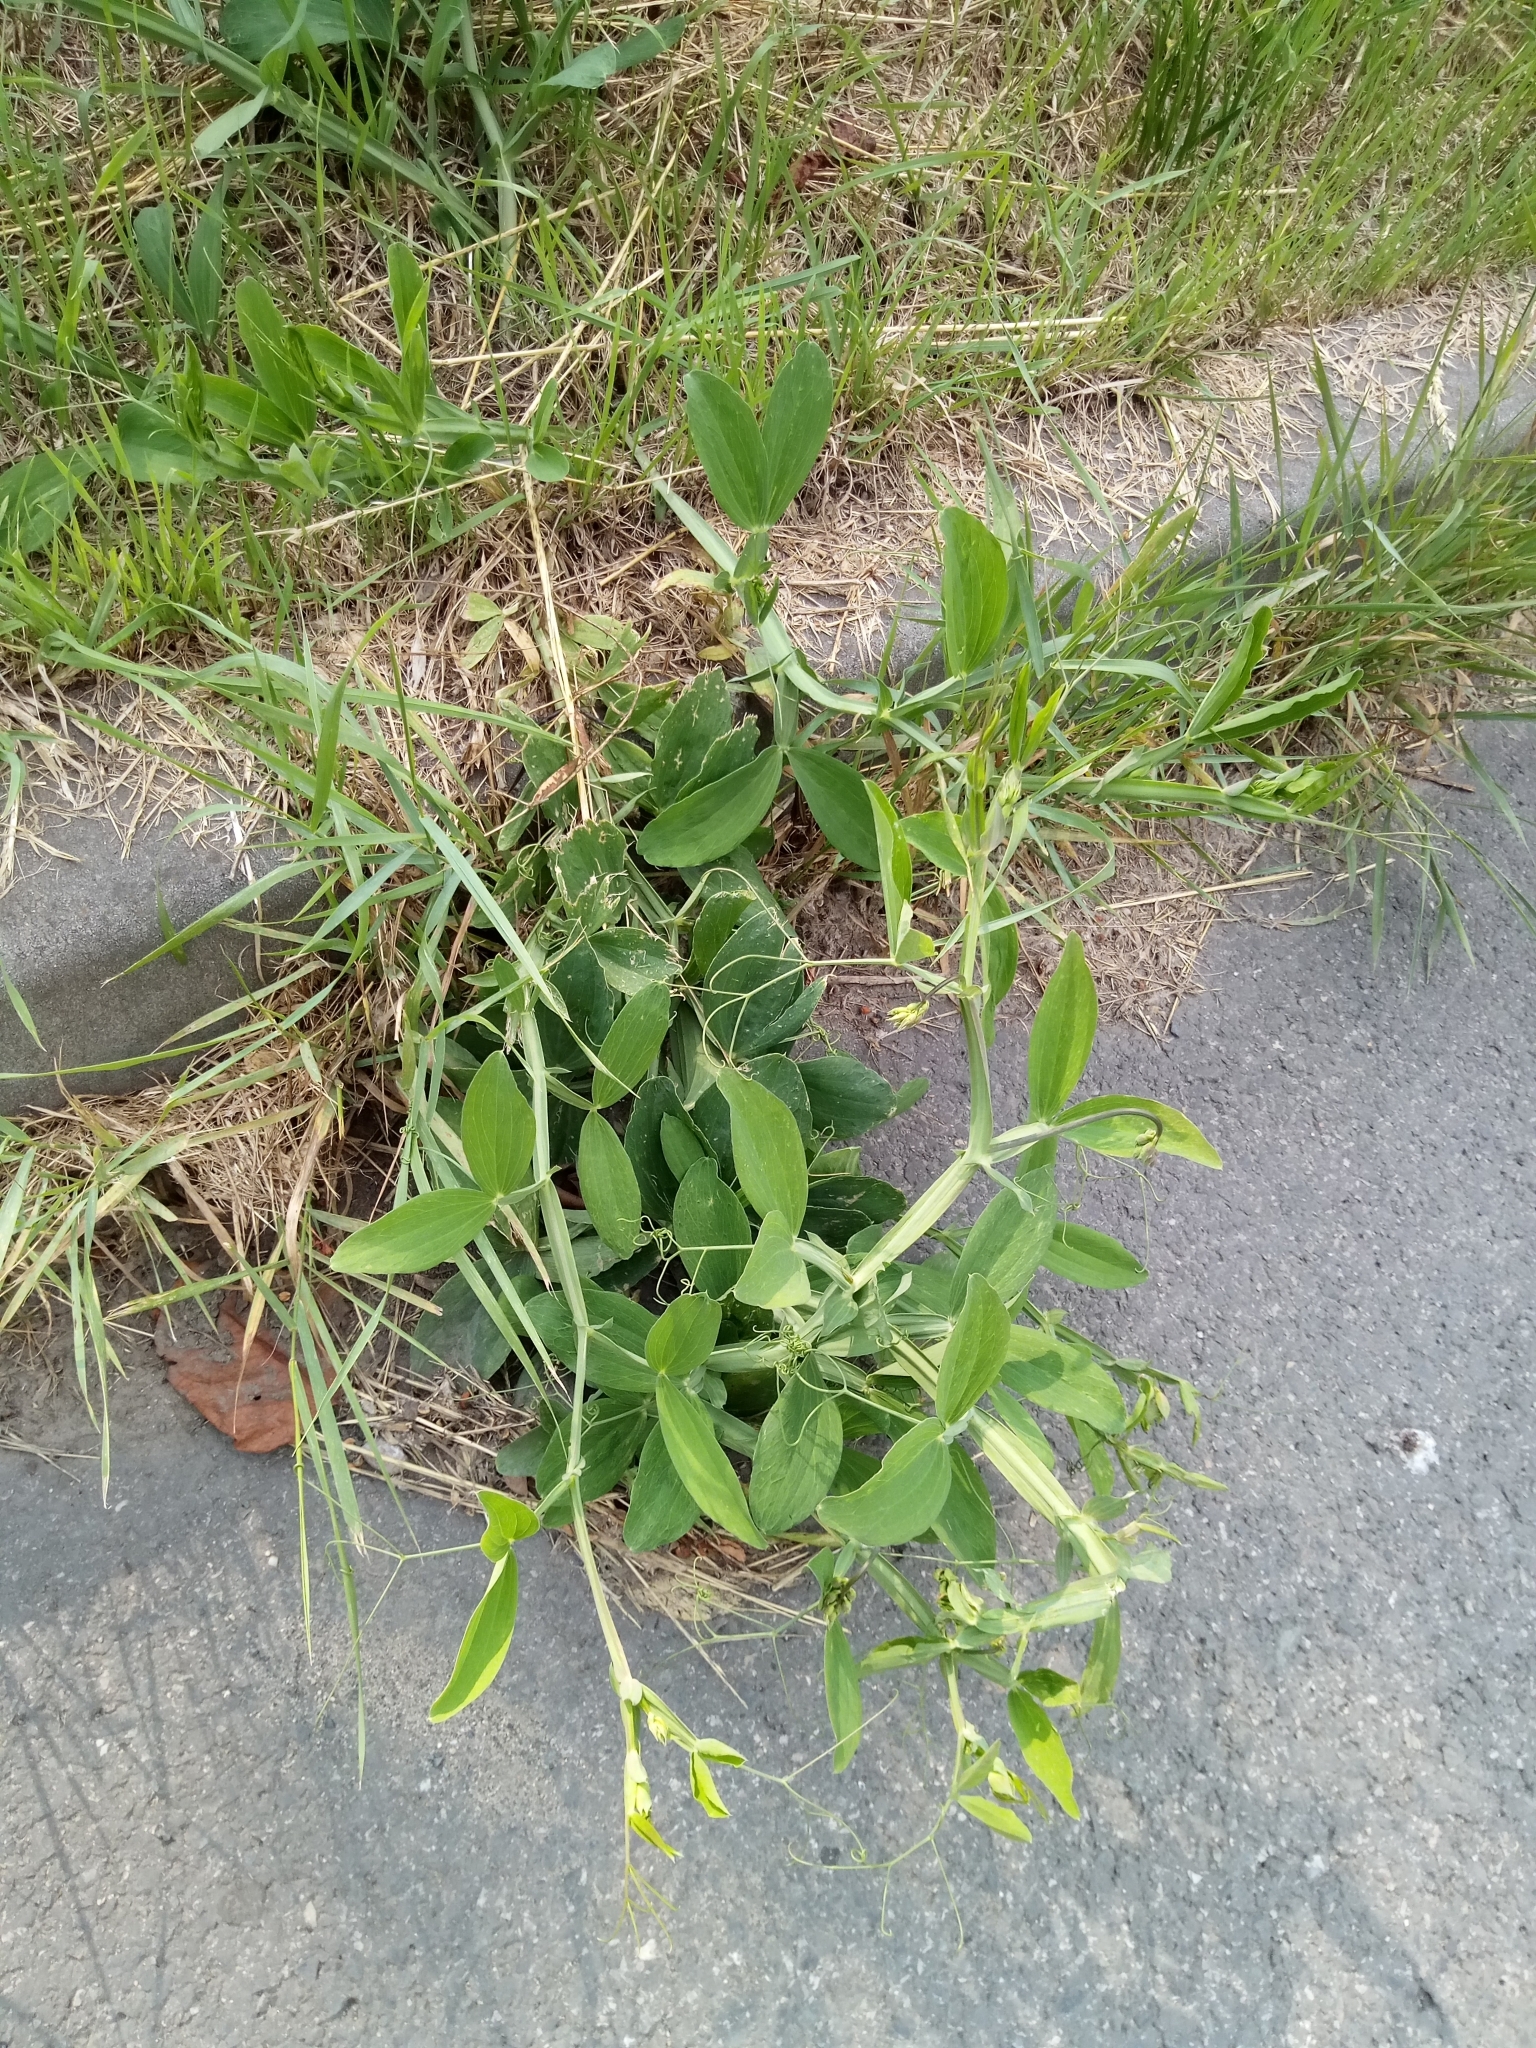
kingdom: Plantae
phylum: Tracheophyta
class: Magnoliopsida
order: Fabales
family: Fabaceae
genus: Lathyrus
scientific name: Lathyrus latifolius
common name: Perennial pea
